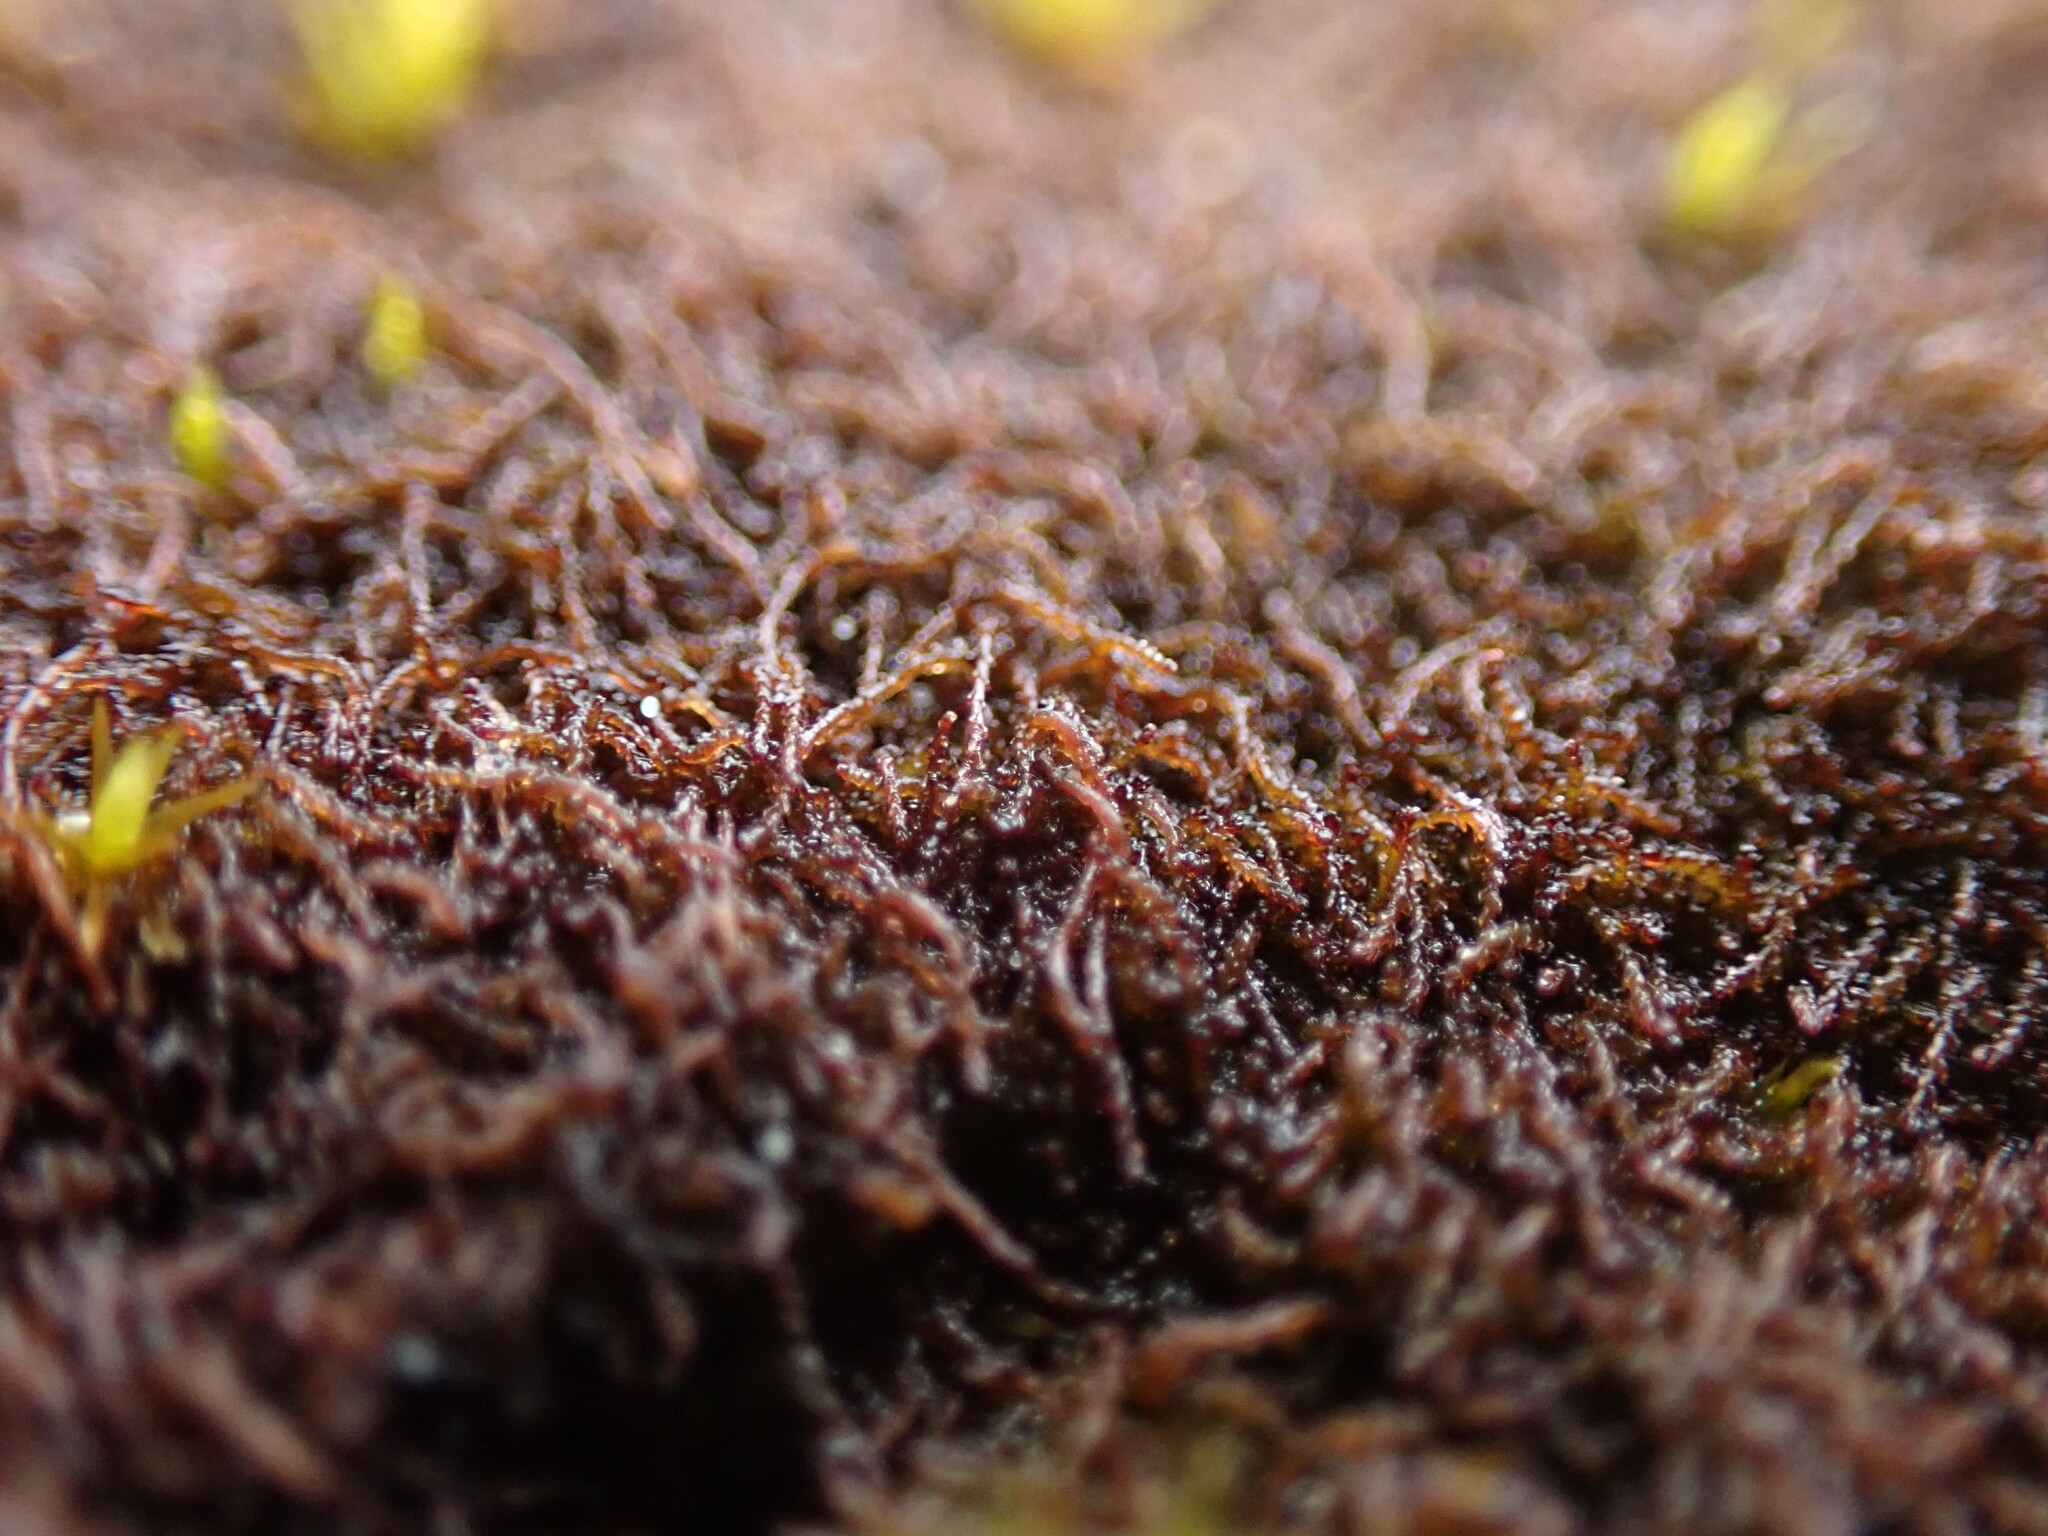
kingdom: Plantae
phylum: Marchantiophyta
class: Jungermanniopsida
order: Jungermanniales
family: Cephaloziellaceae
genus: Cephaloziella
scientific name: Cephaloziella divaricata
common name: Spreading threadwort
